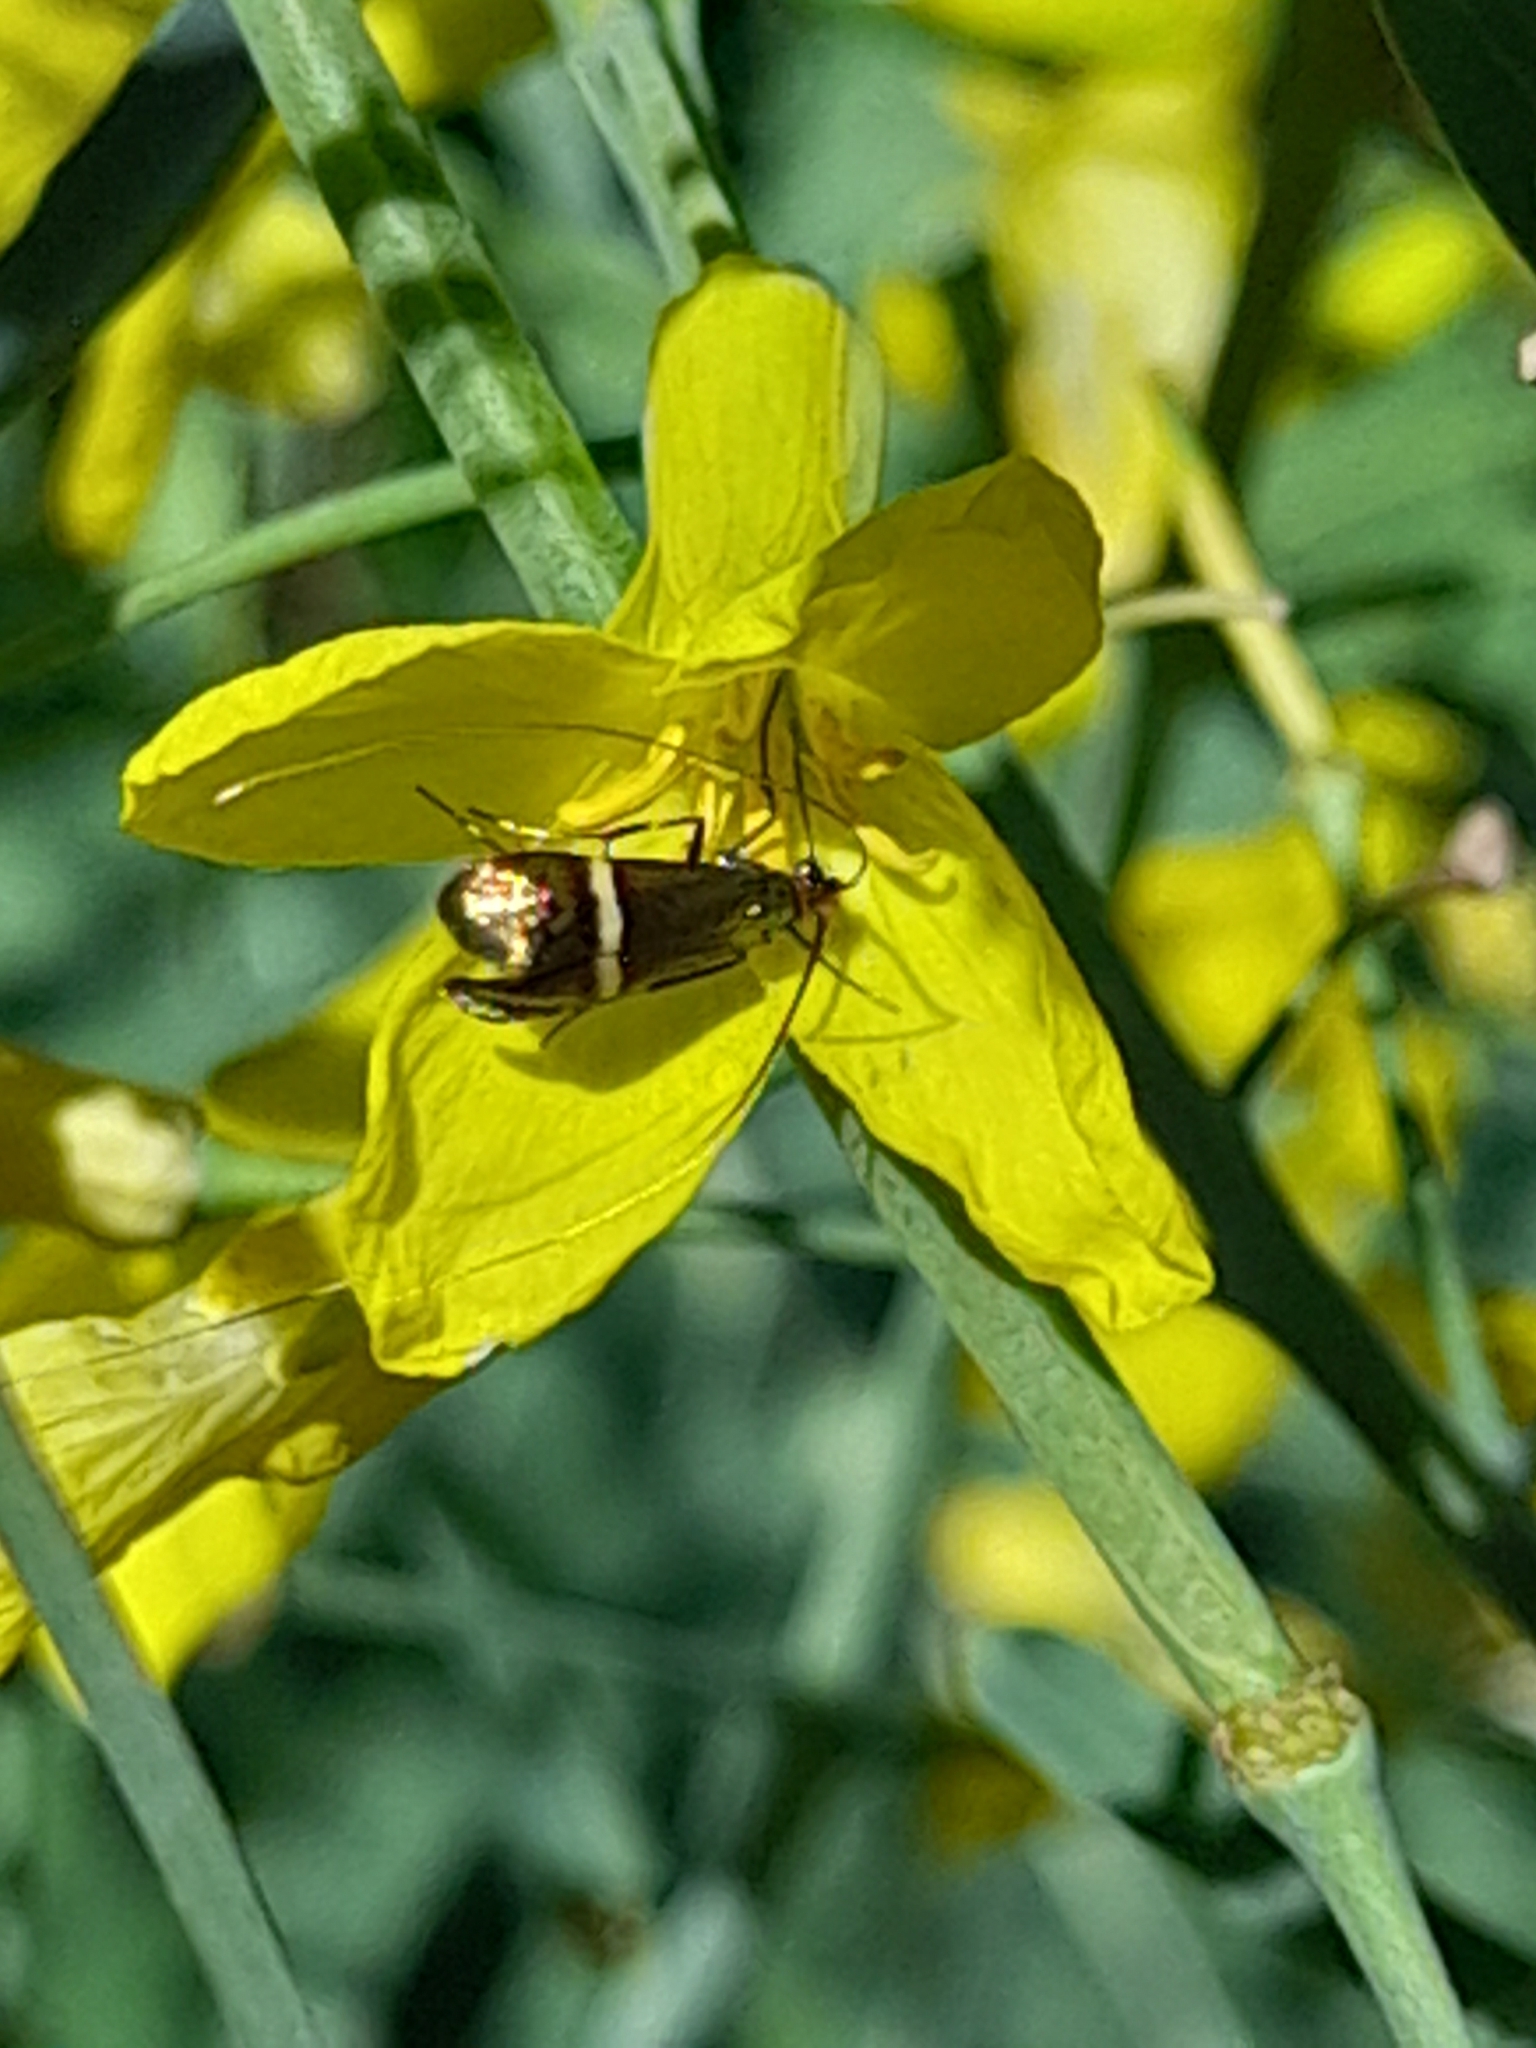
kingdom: Animalia
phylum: Arthropoda
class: Insecta
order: Lepidoptera
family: Adelidae
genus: Adela
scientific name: Adela australis
